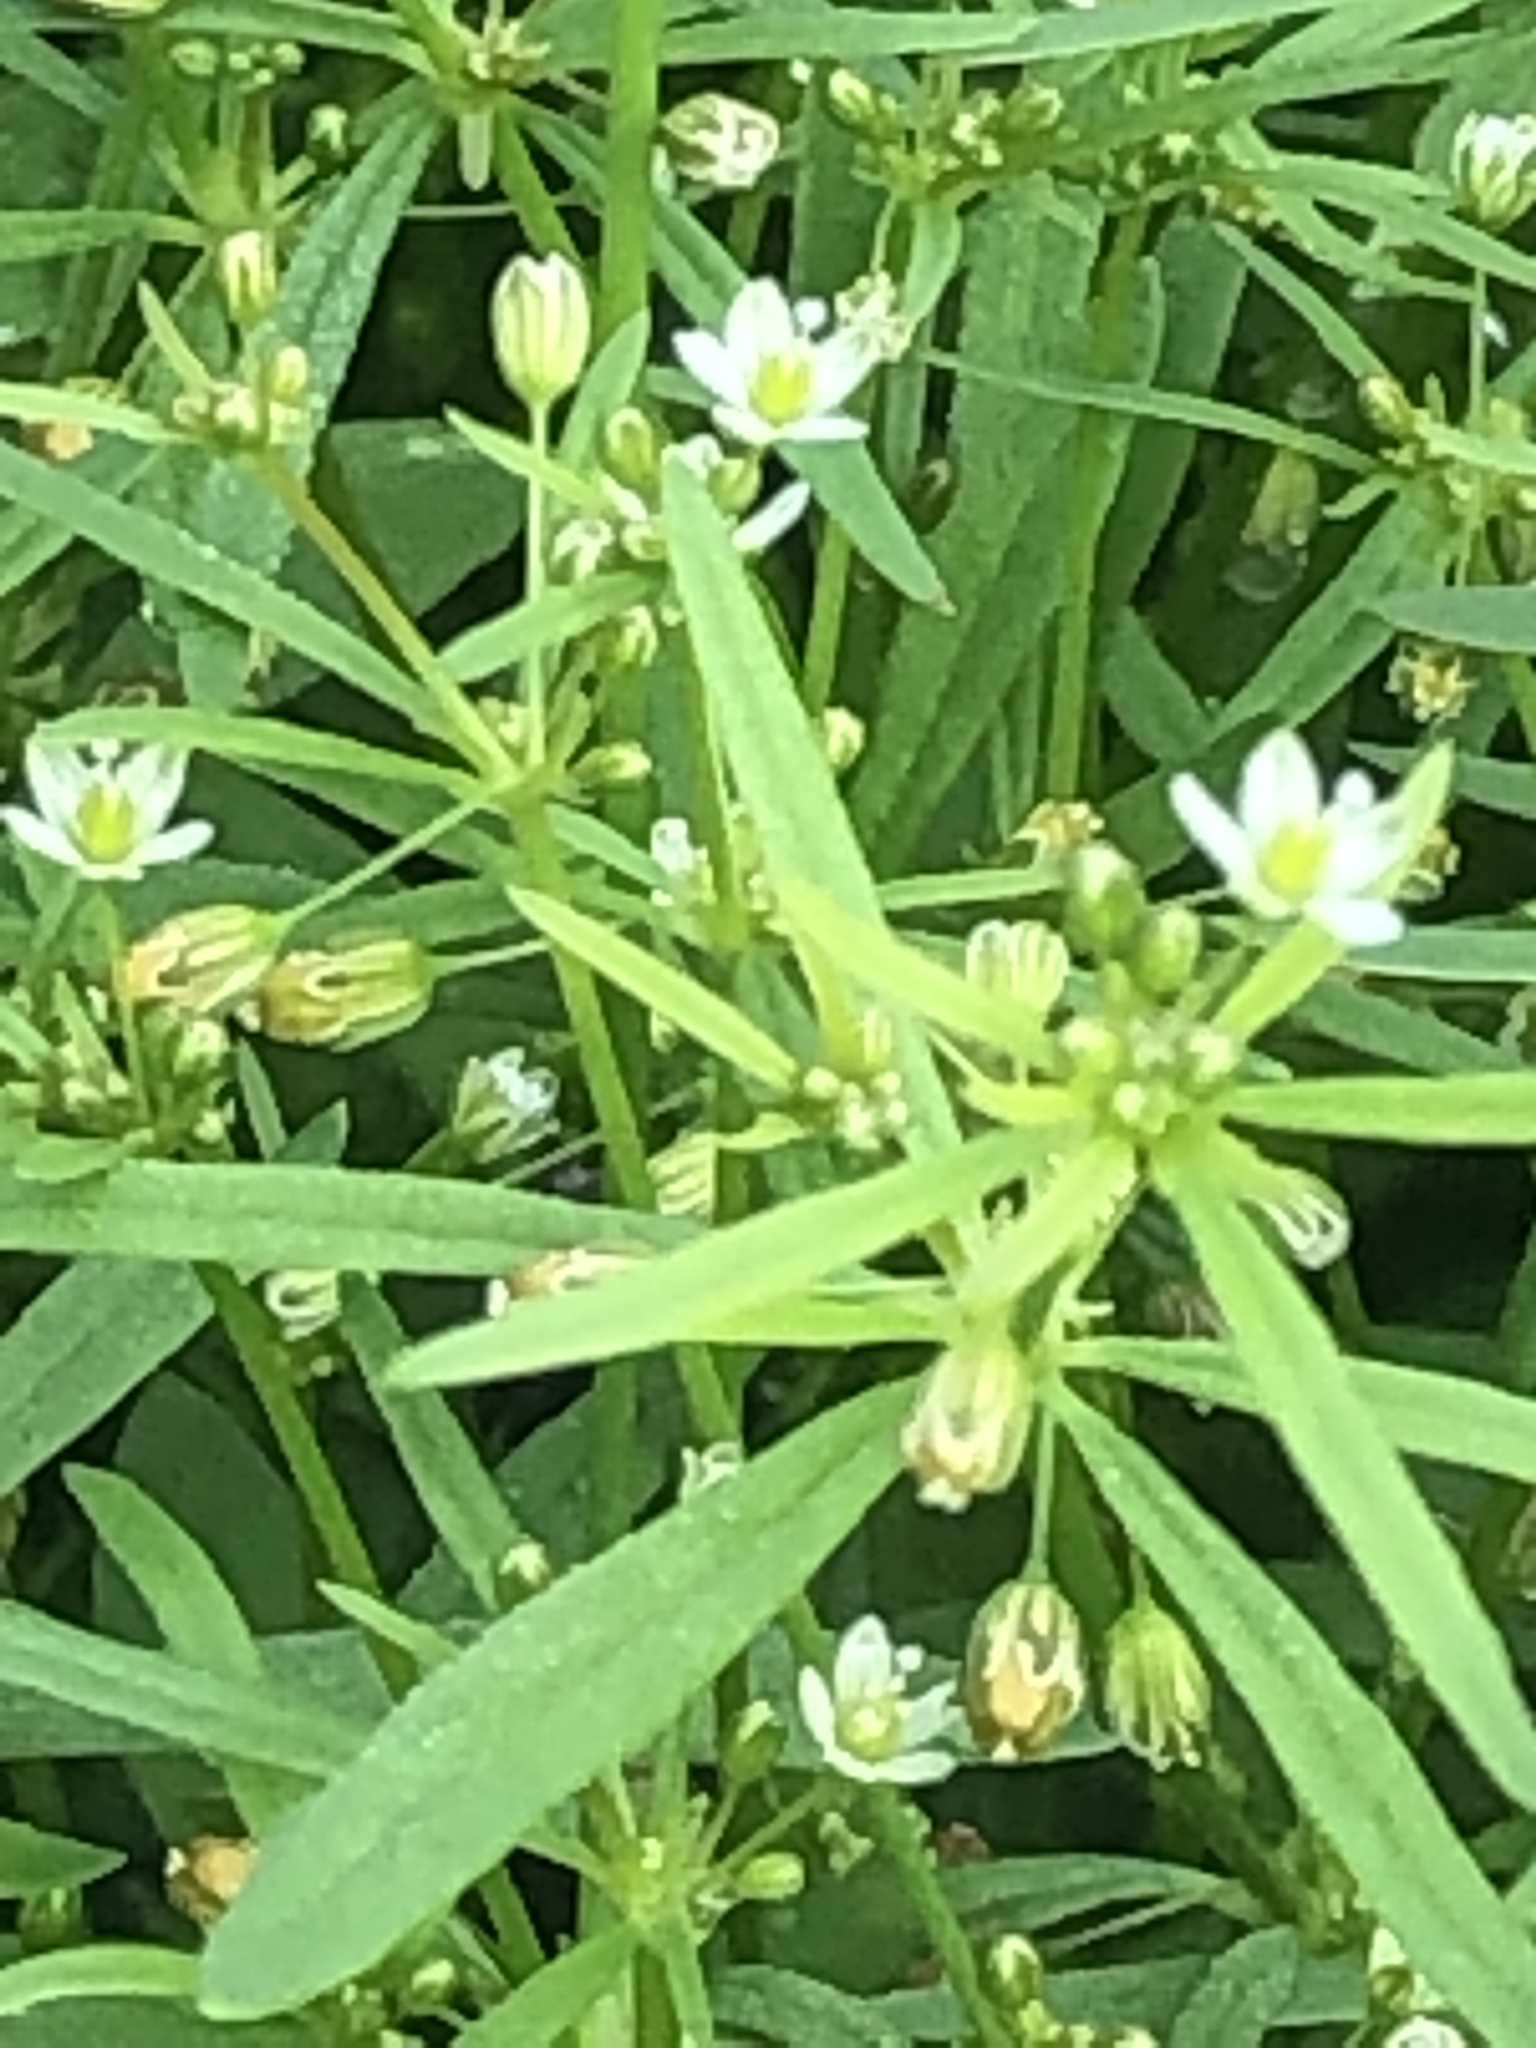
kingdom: Plantae
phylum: Tracheophyta
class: Magnoliopsida
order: Caryophyllales
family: Molluginaceae
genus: Mollugo
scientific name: Mollugo verticillata
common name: Green carpetweed
